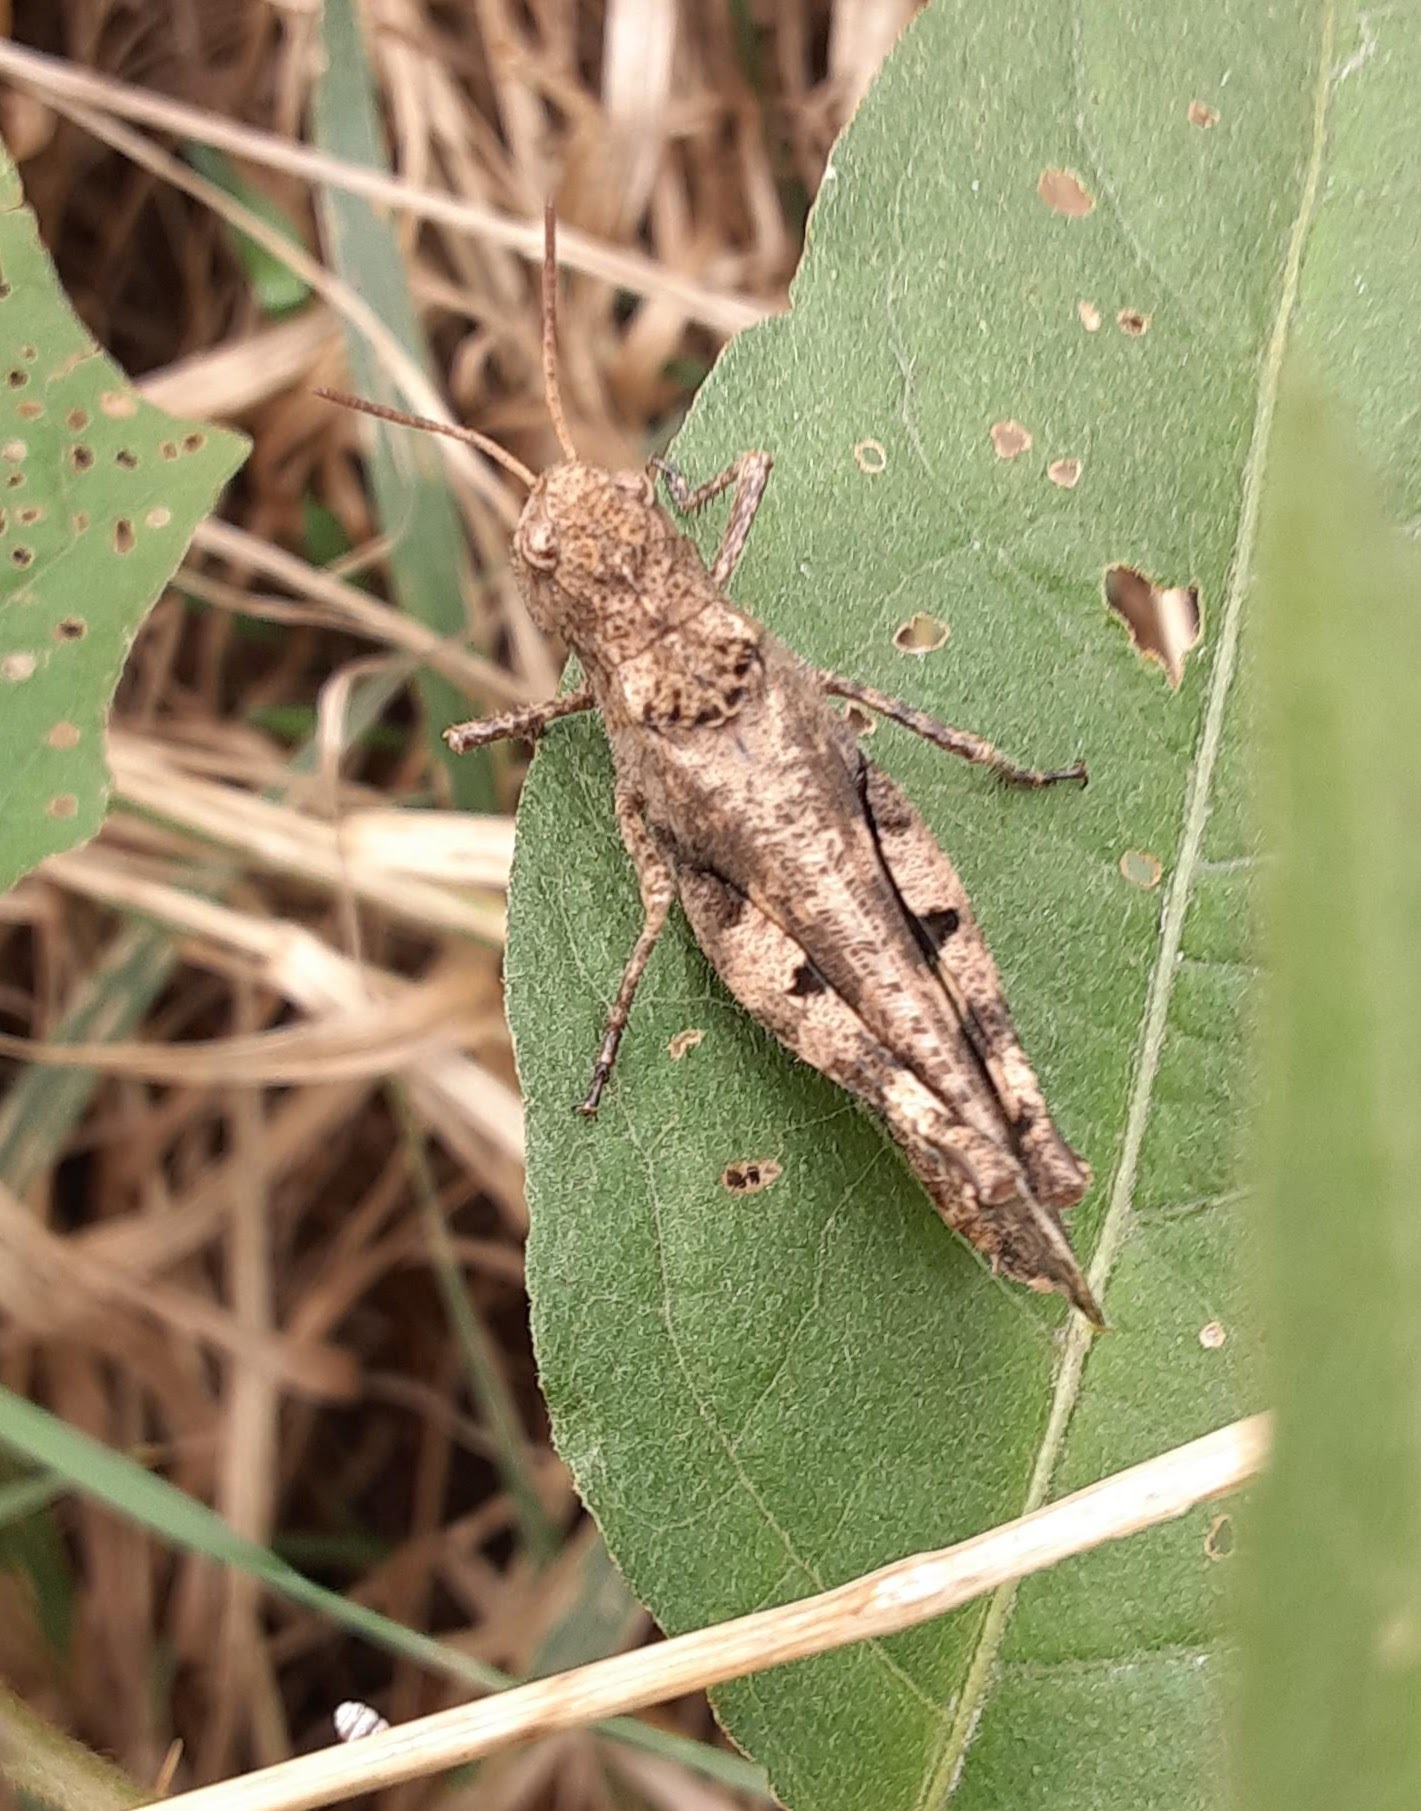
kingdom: Animalia
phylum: Arthropoda
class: Insecta
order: Orthoptera
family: Acrididae
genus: Encoptolophus
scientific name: Encoptolophus sordidus
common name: Dusky grasshopper
